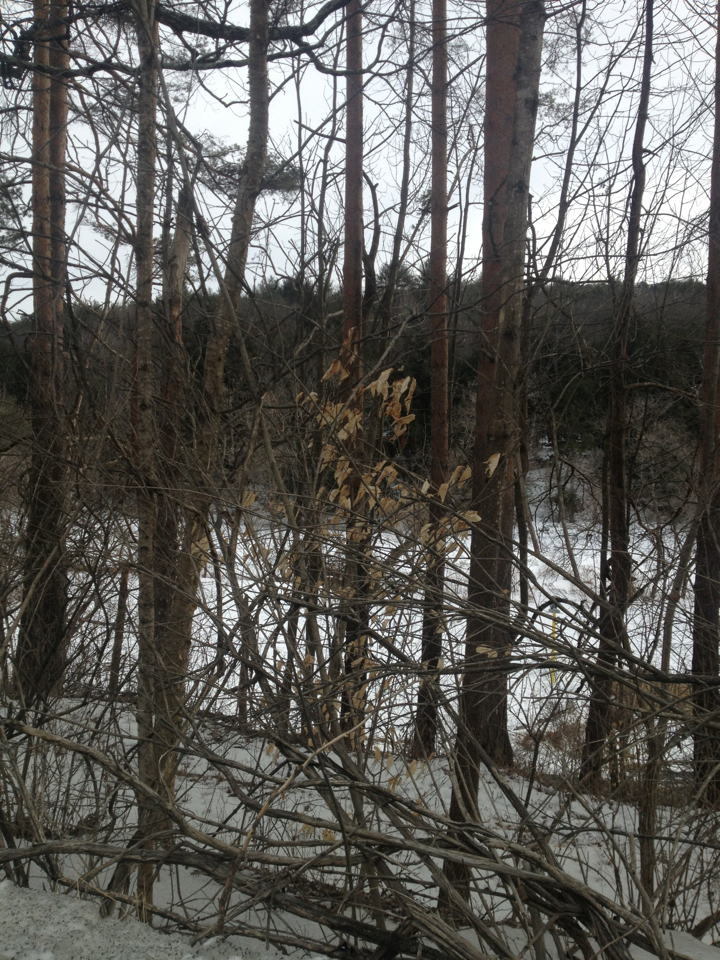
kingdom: Plantae
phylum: Tracheophyta
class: Magnoliopsida
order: Fagales
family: Fagaceae
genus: Fagus
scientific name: Fagus grandifolia
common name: American beech
